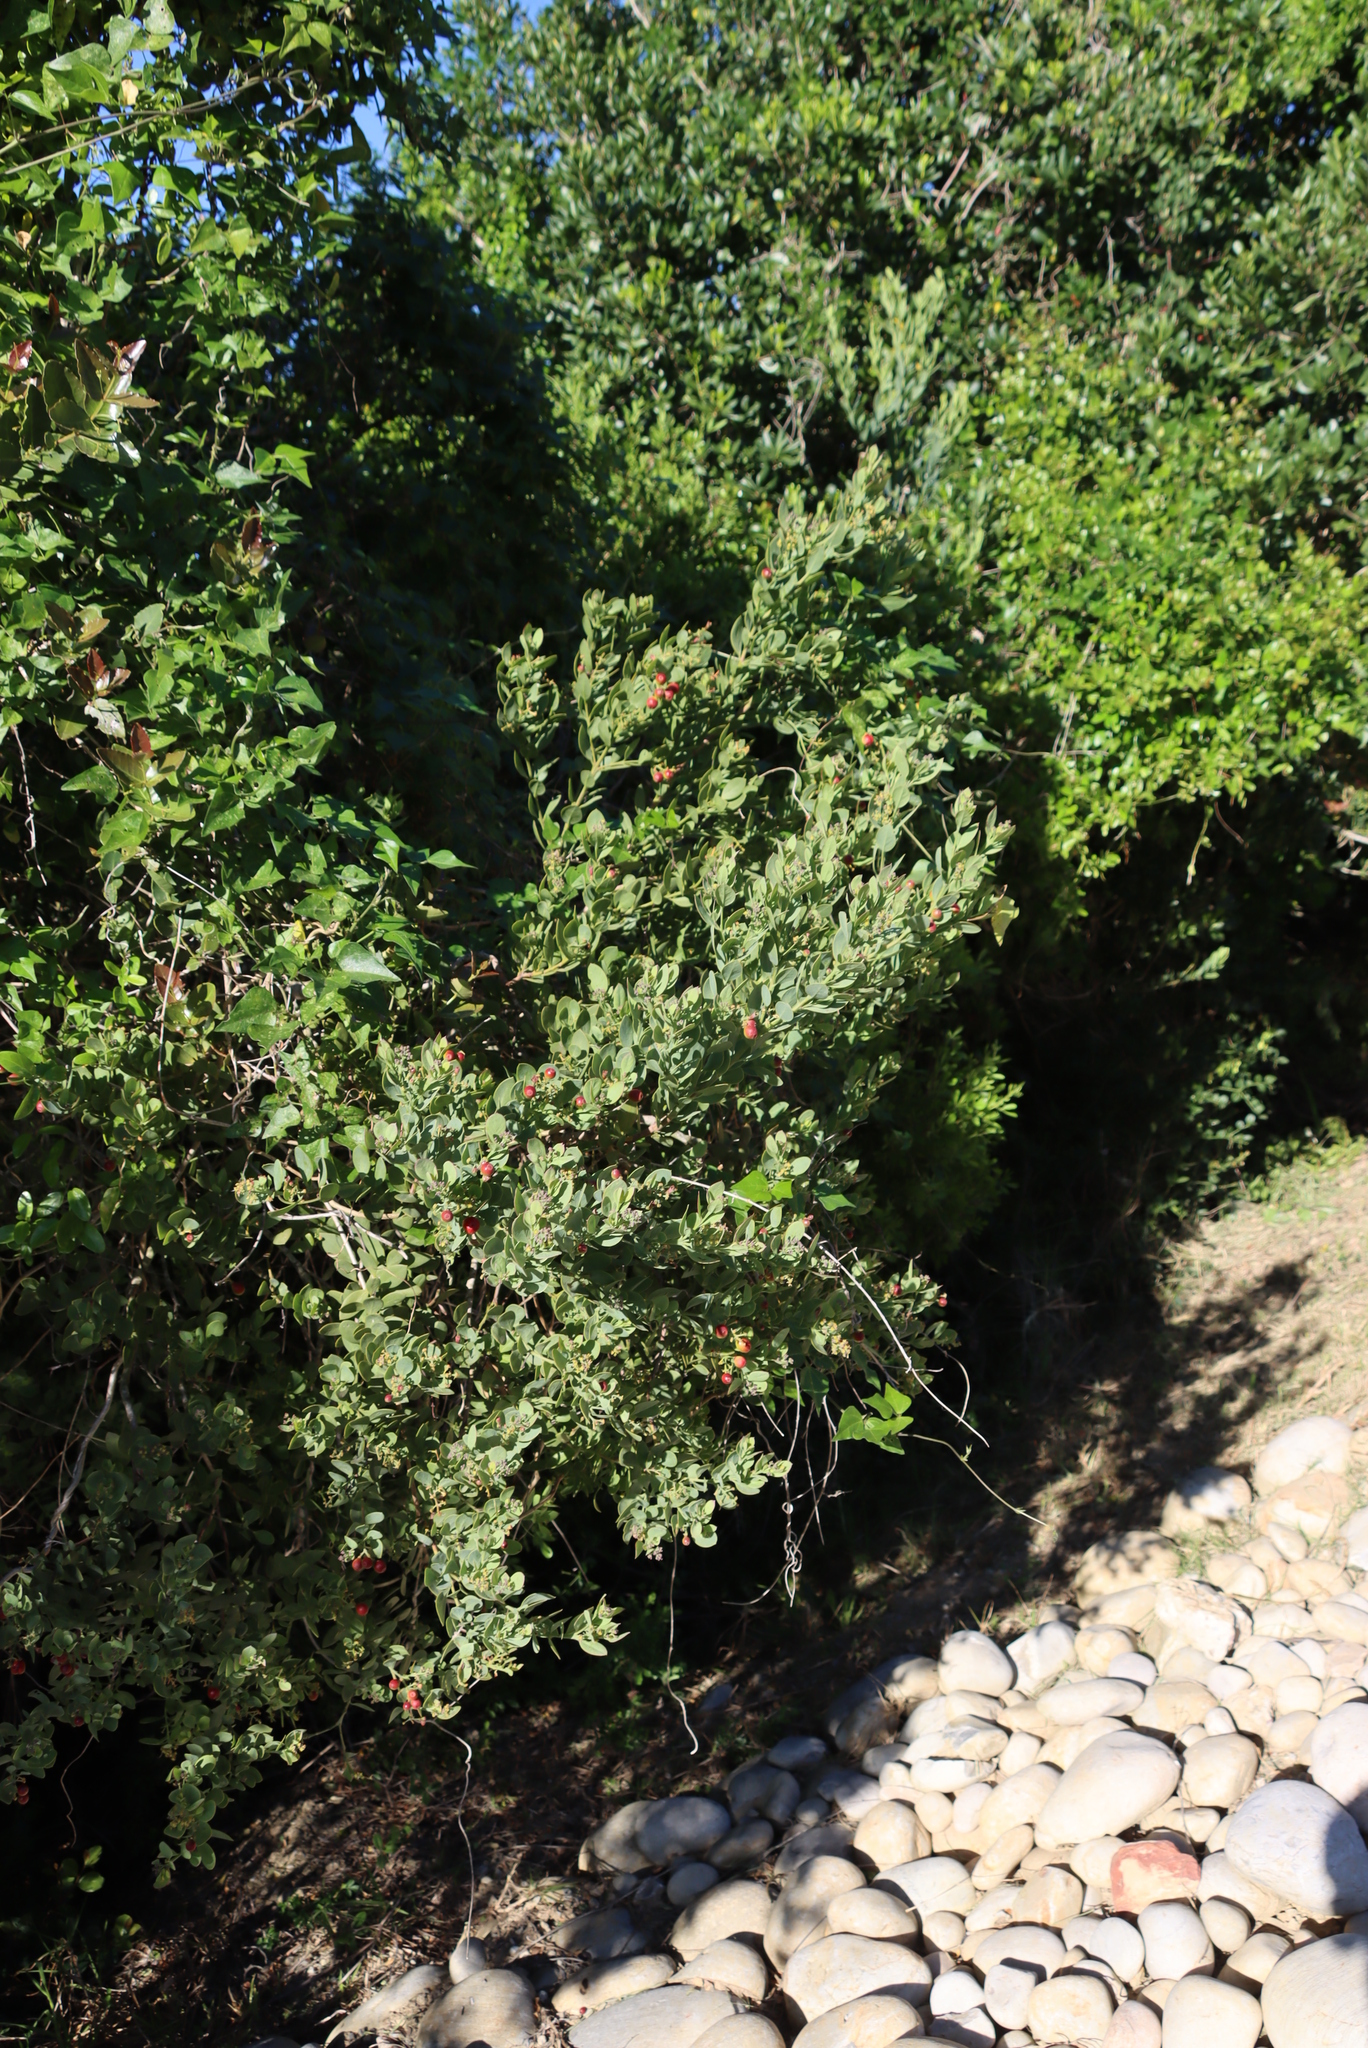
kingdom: Plantae
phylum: Tracheophyta
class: Magnoliopsida
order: Santalales
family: Santalaceae
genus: Osyris
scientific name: Osyris compressa
